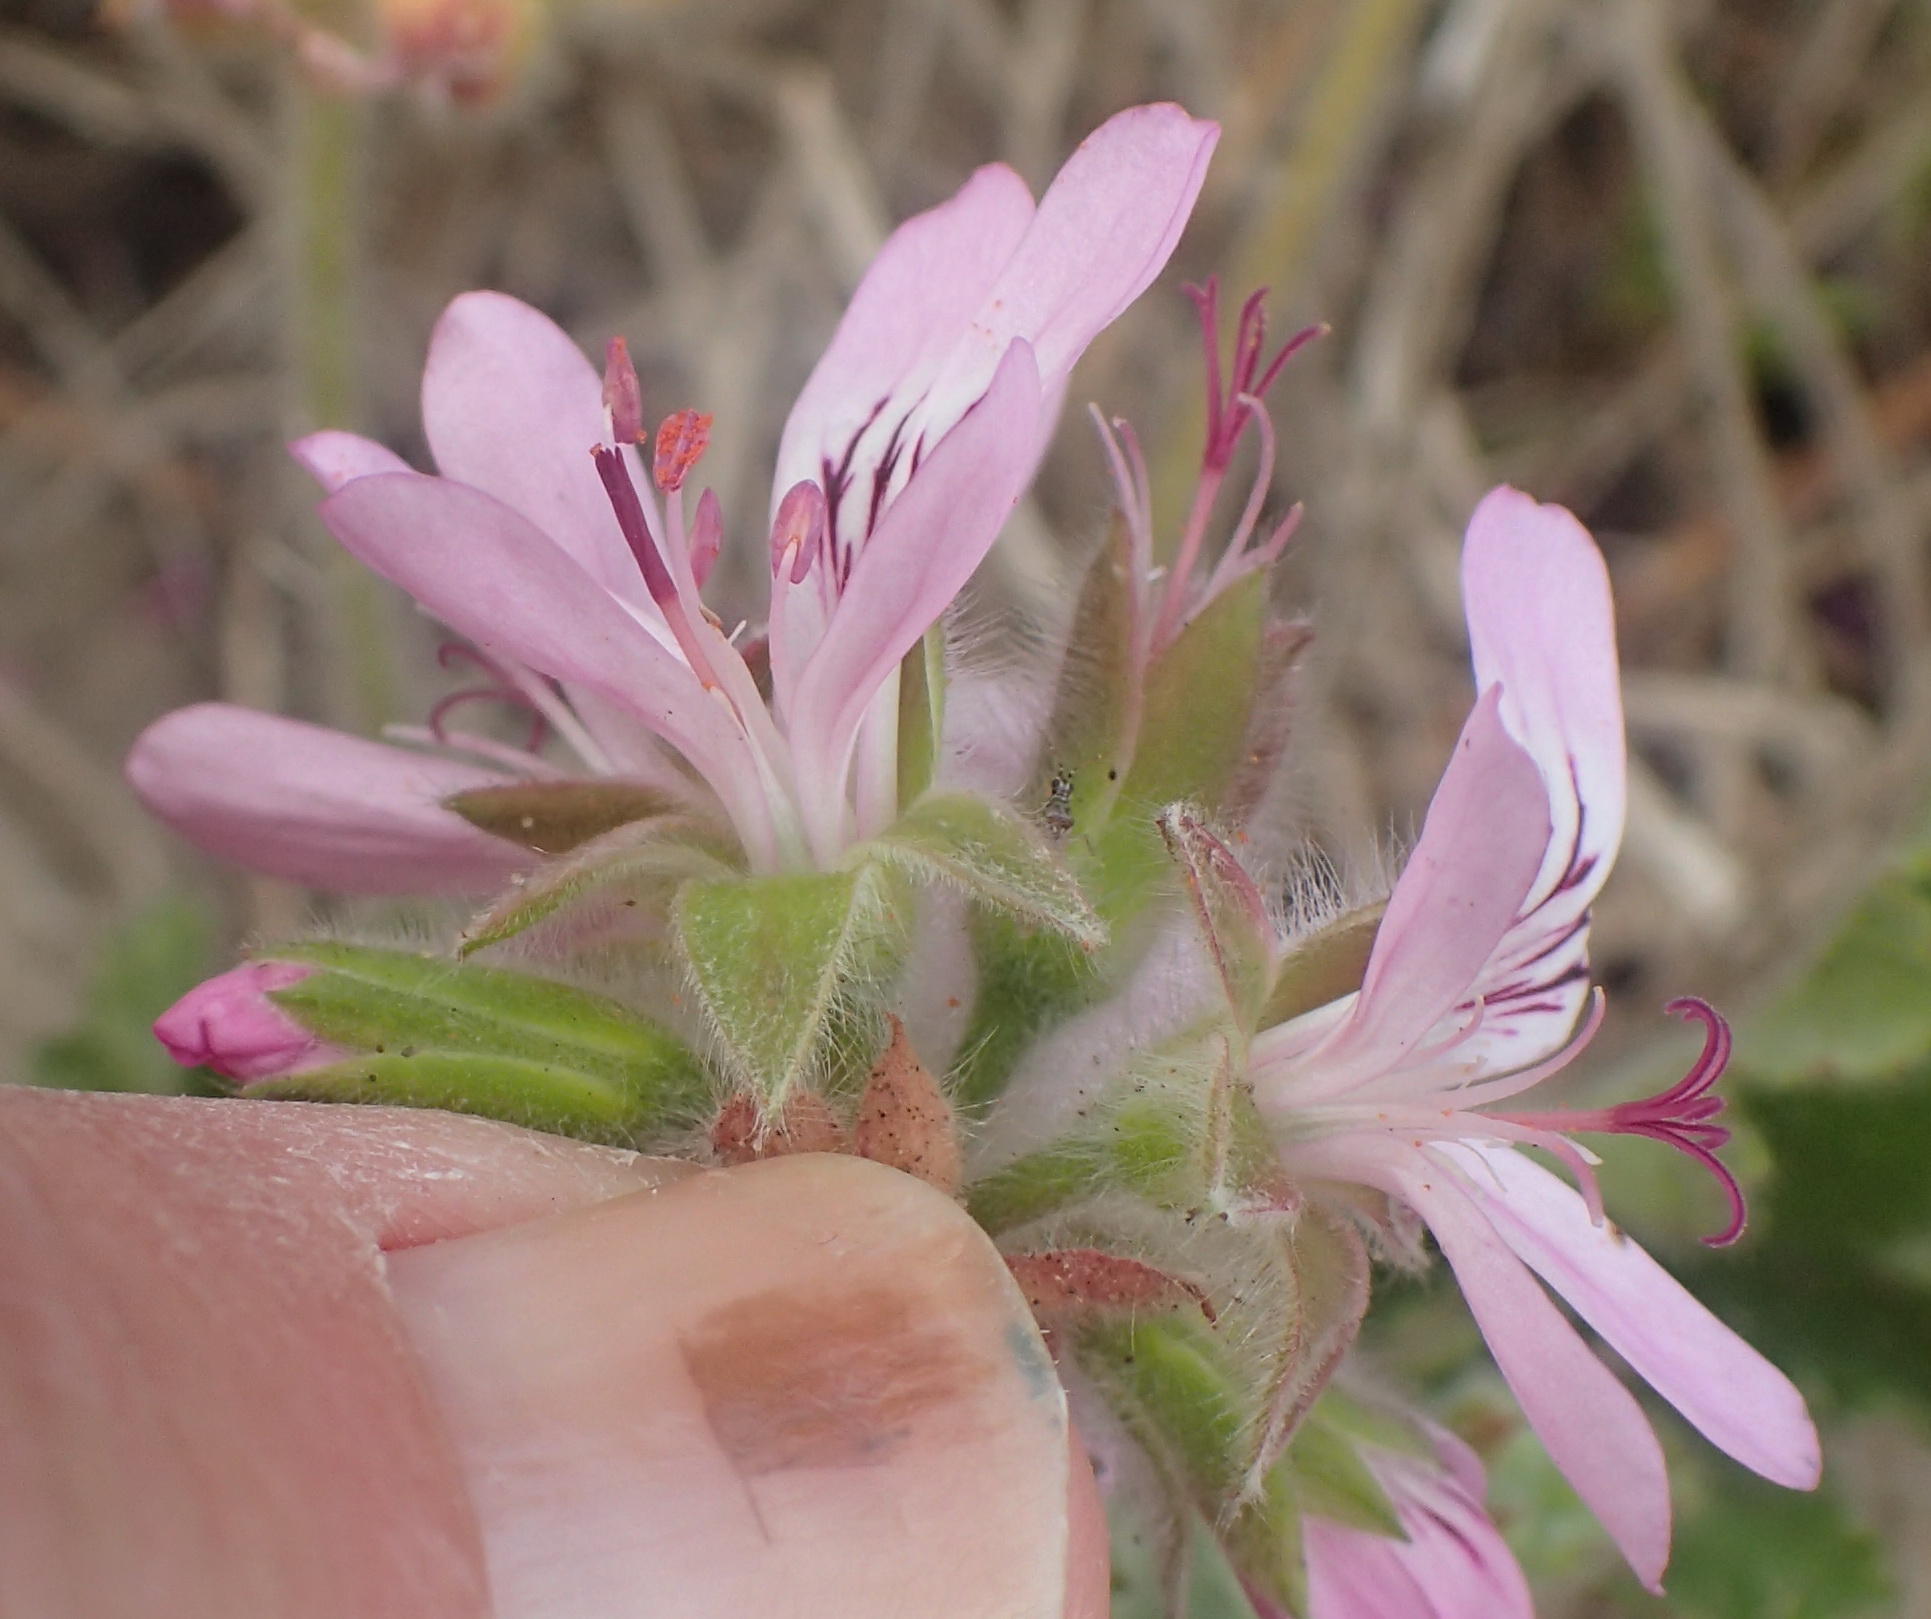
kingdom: Plantae
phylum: Tracheophyta
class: Magnoliopsida
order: Geraniales
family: Geraniaceae
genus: Pelargonium
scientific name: Pelargonium capitatum
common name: Rose scented geranium
